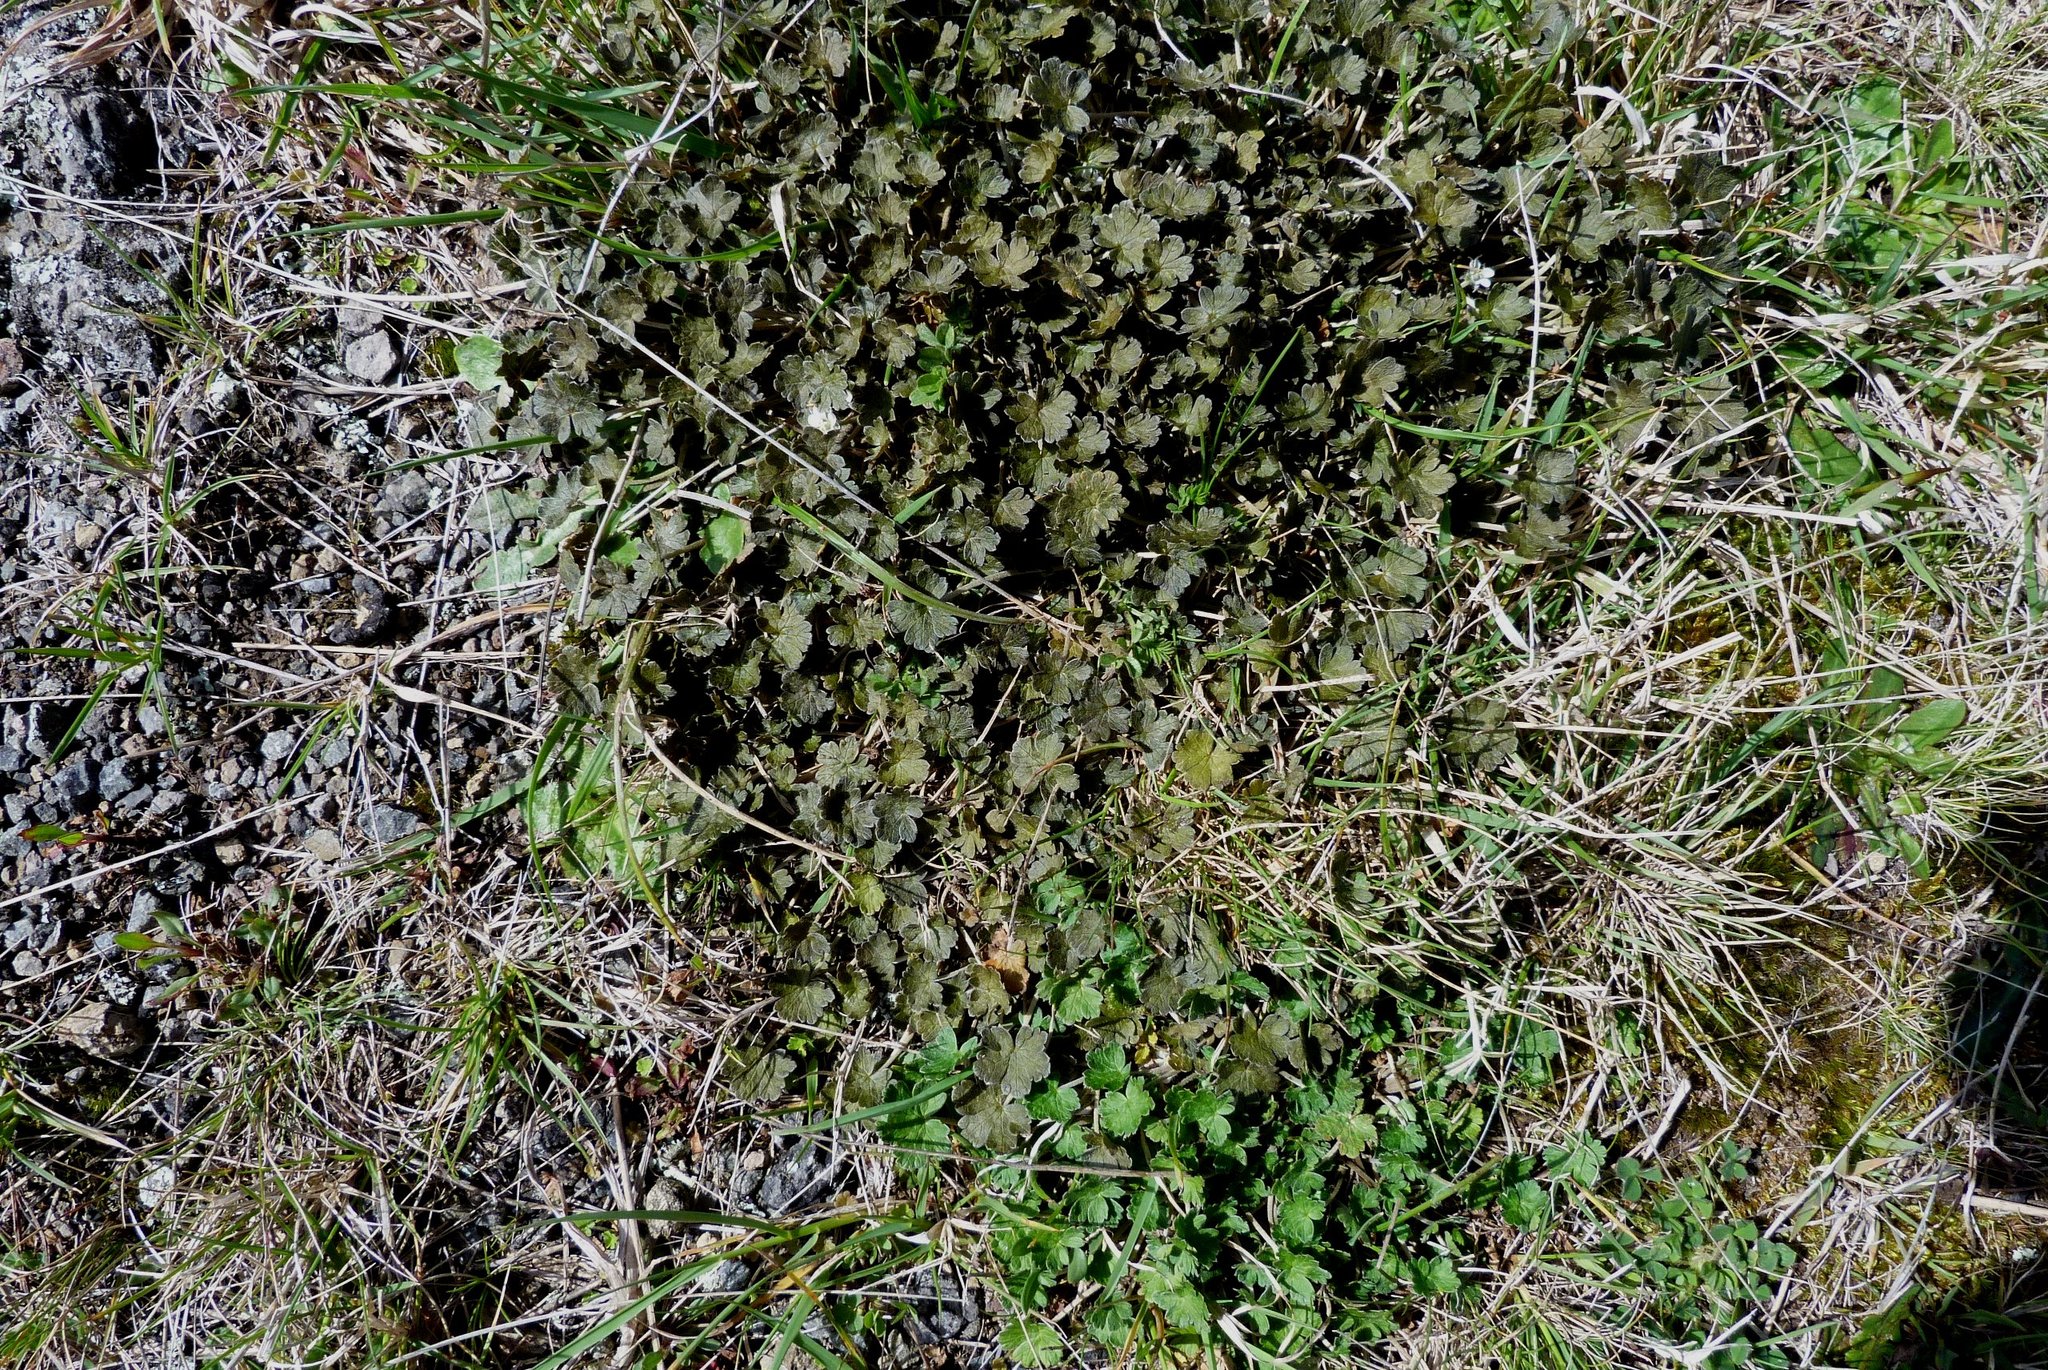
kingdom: Plantae
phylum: Tracheophyta
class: Magnoliopsida
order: Geraniales
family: Geraniaceae
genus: Geranium
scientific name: Geranium brevicaule
